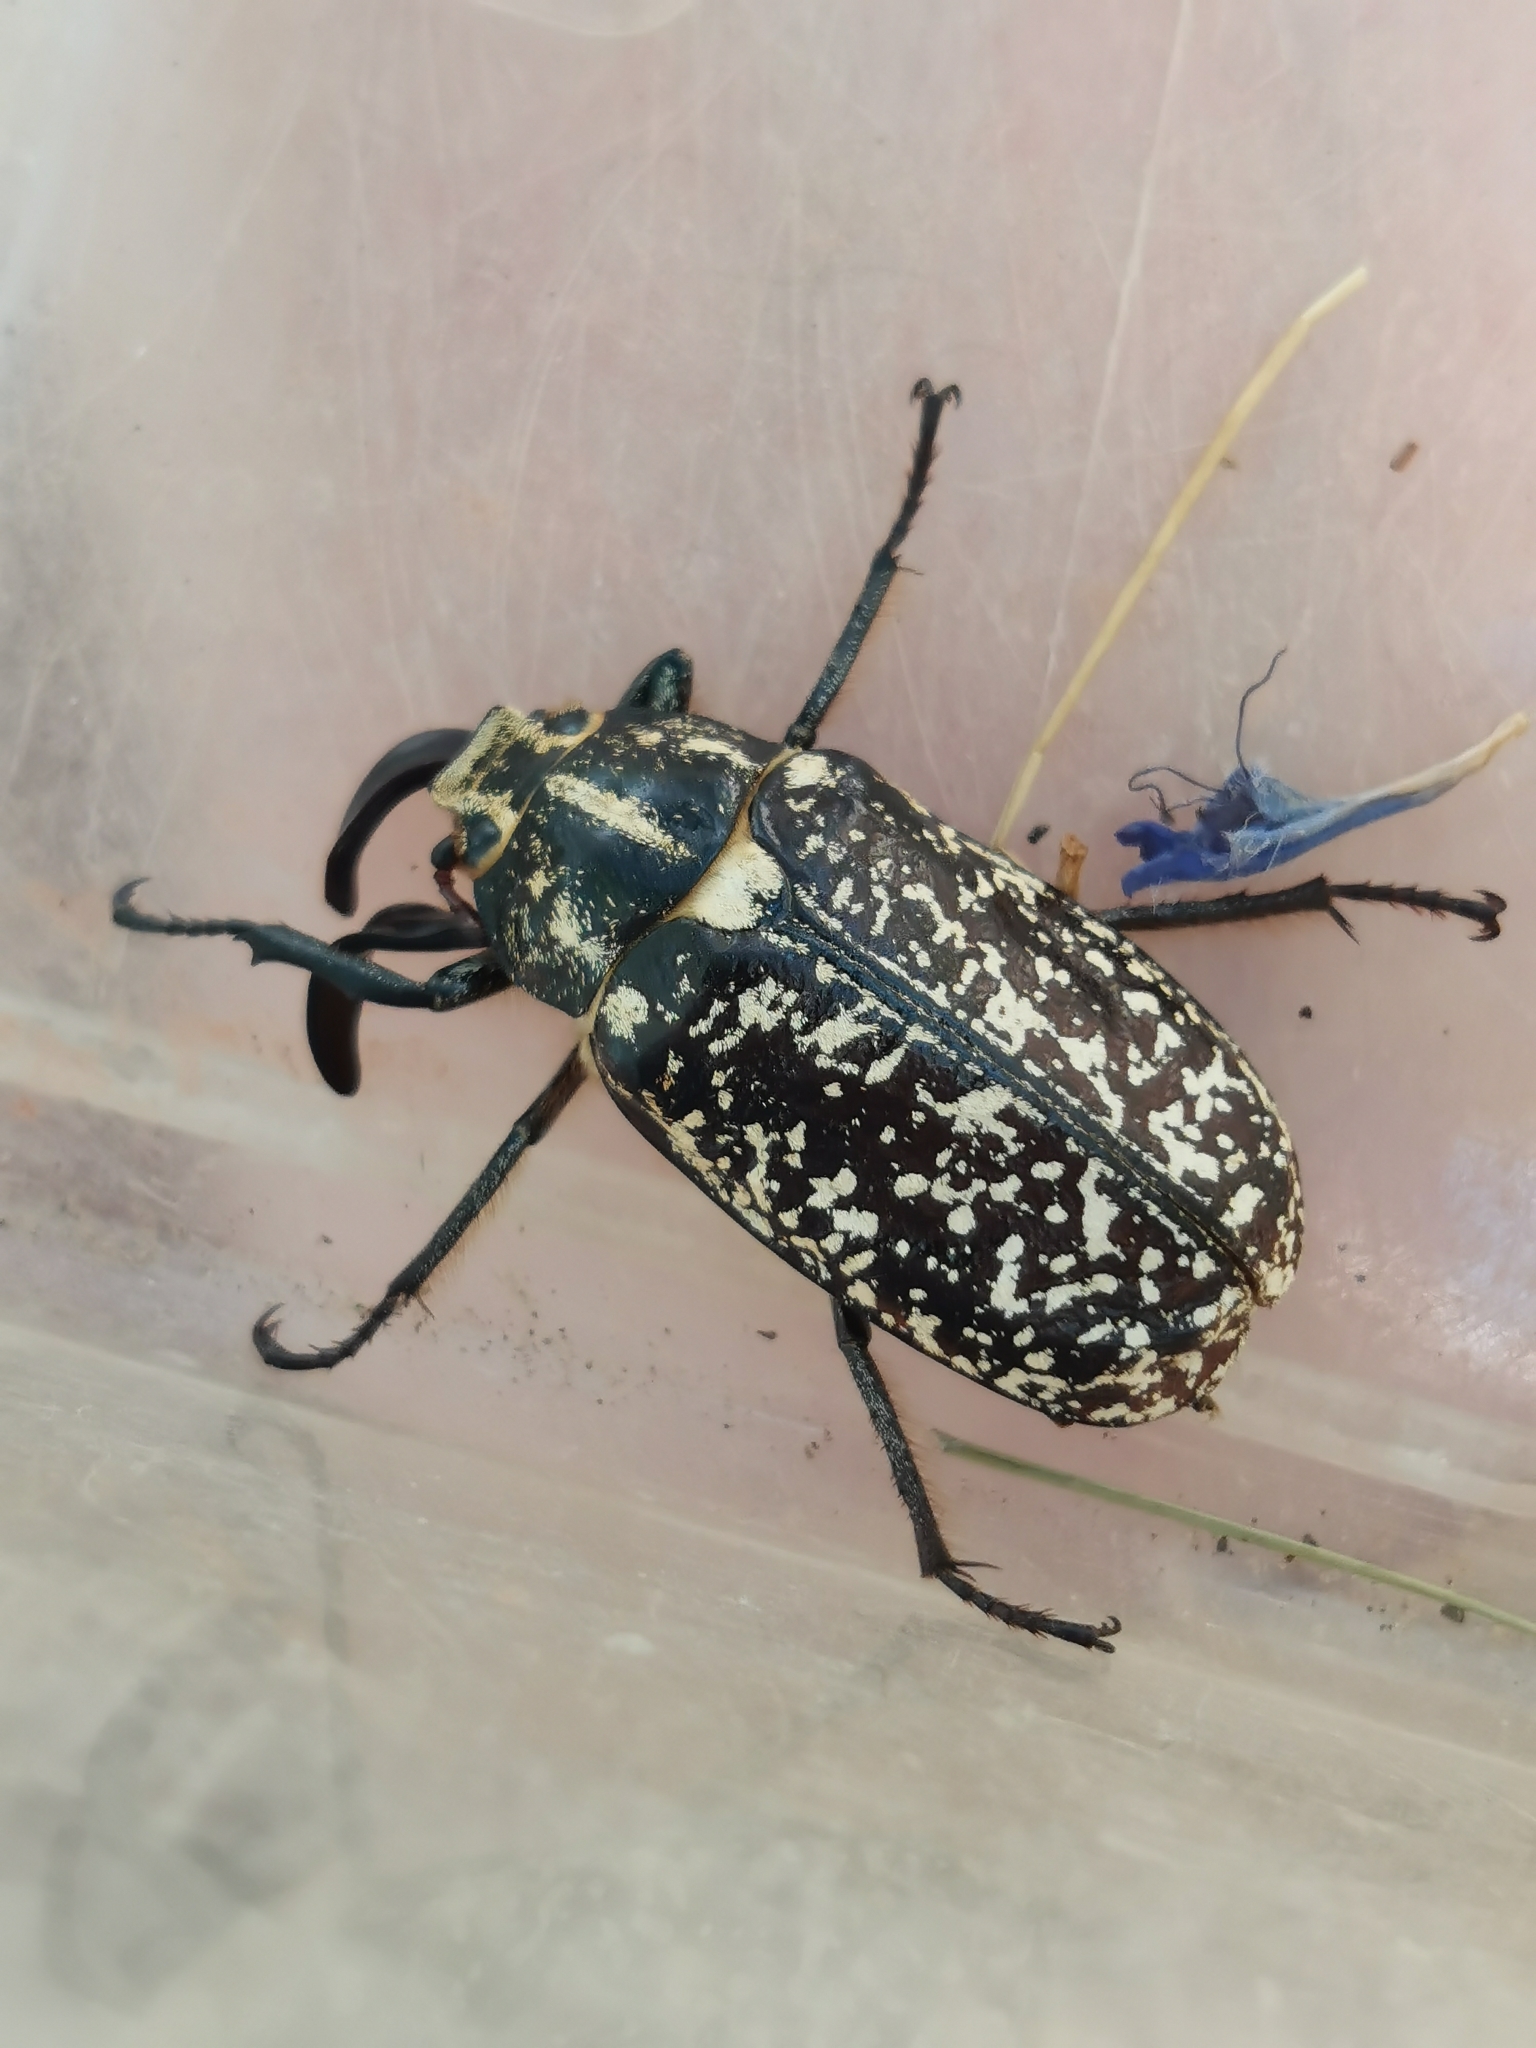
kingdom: Animalia
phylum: Arthropoda
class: Insecta
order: Coleoptera
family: Scarabaeidae
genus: Polyphylla
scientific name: Polyphylla fullo
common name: Pine chafer
